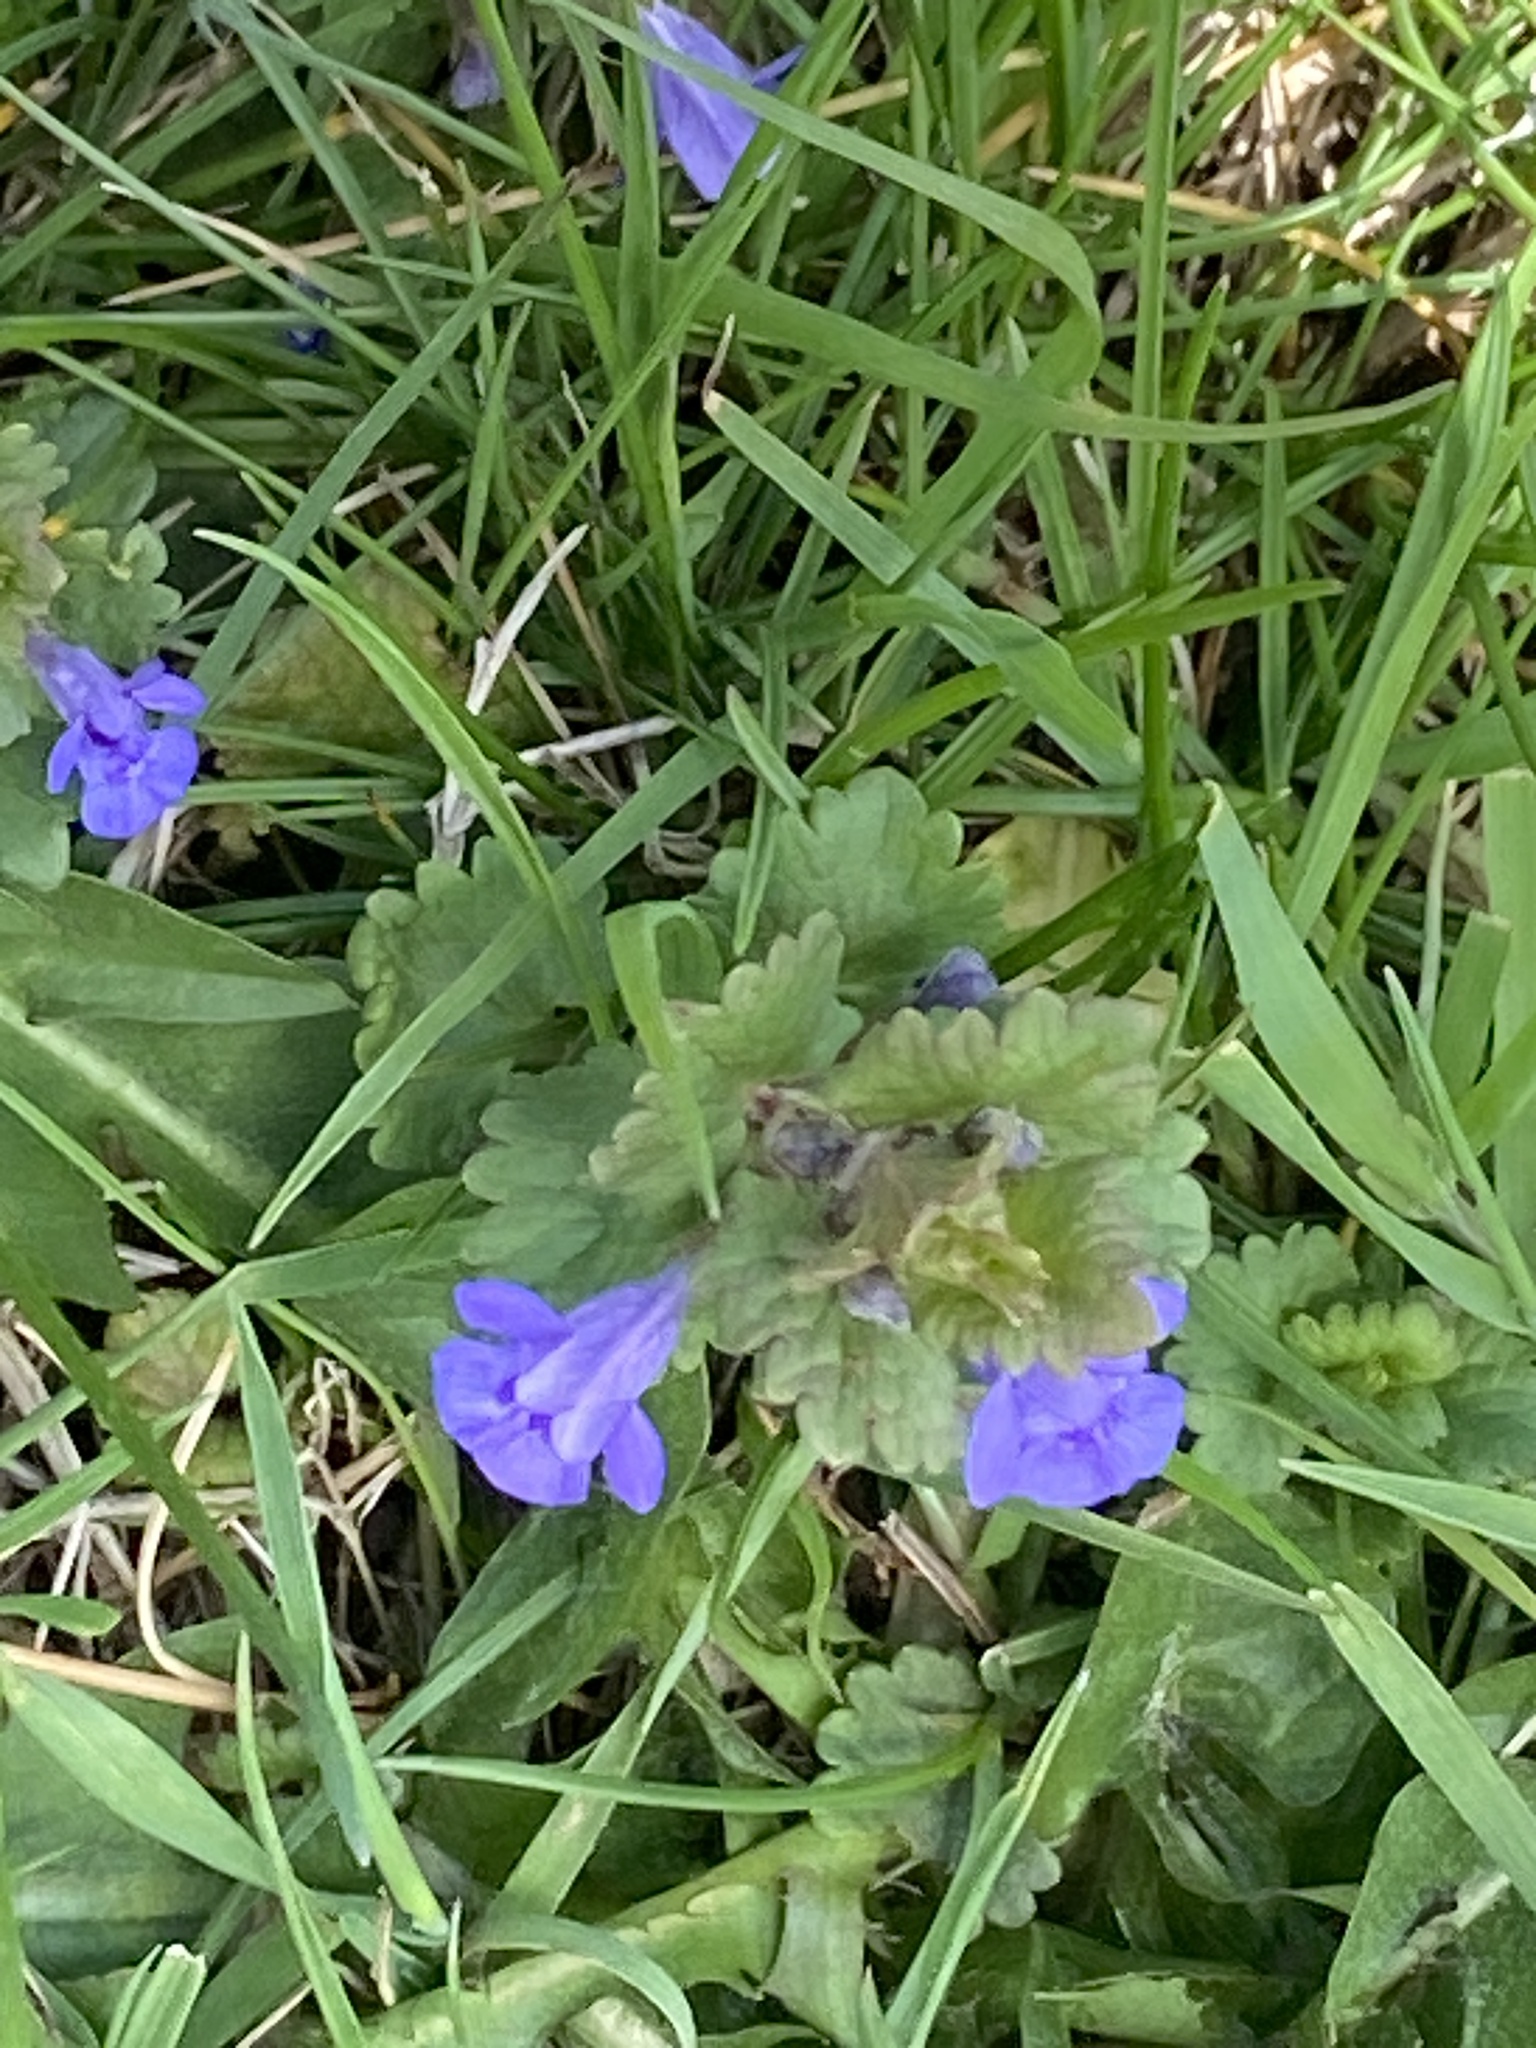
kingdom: Plantae
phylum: Tracheophyta
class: Magnoliopsida
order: Lamiales
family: Lamiaceae
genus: Glechoma
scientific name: Glechoma hederacea
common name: Ground ivy
